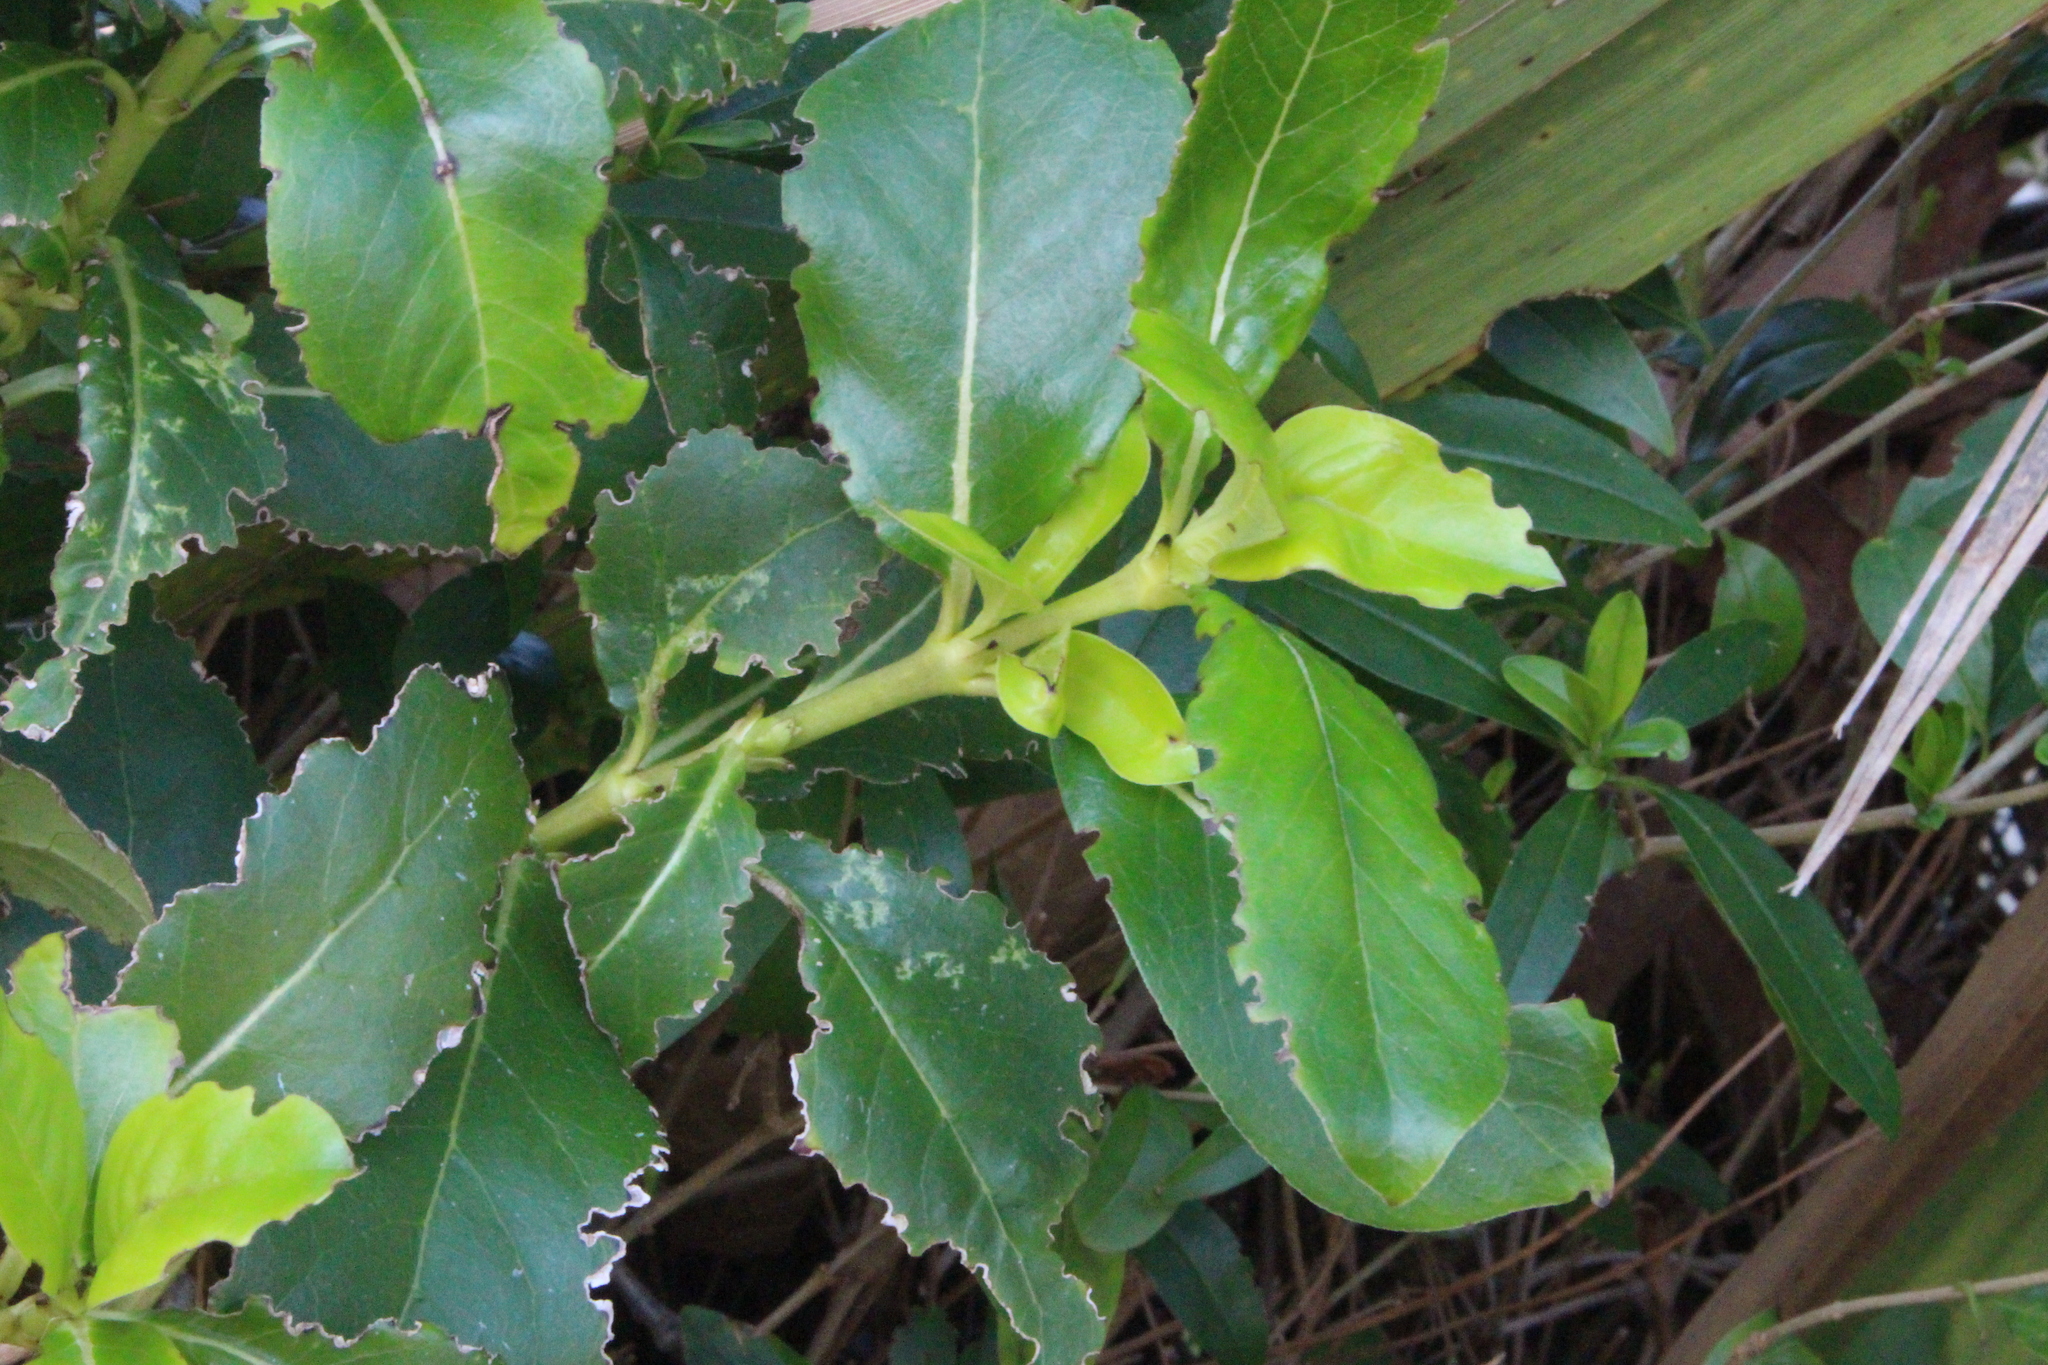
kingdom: Plantae
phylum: Tracheophyta
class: Magnoliopsida
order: Gentianales
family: Rubiaceae
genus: Coprosma
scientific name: Coprosma robusta
